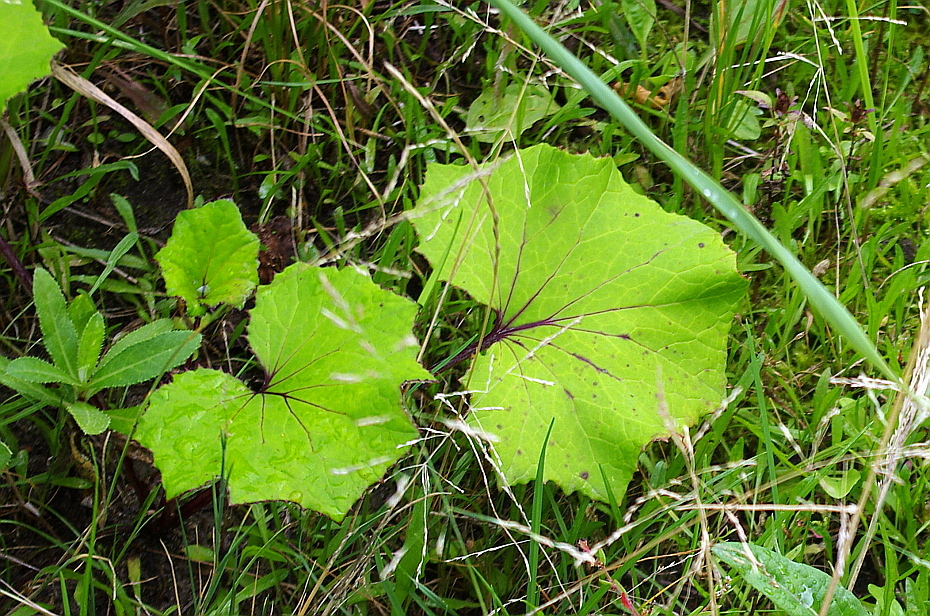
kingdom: Plantae
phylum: Tracheophyta
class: Magnoliopsida
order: Asterales
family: Asteraceae
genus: Tussilago
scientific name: Tussilago farfara
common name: Coltsfoot
